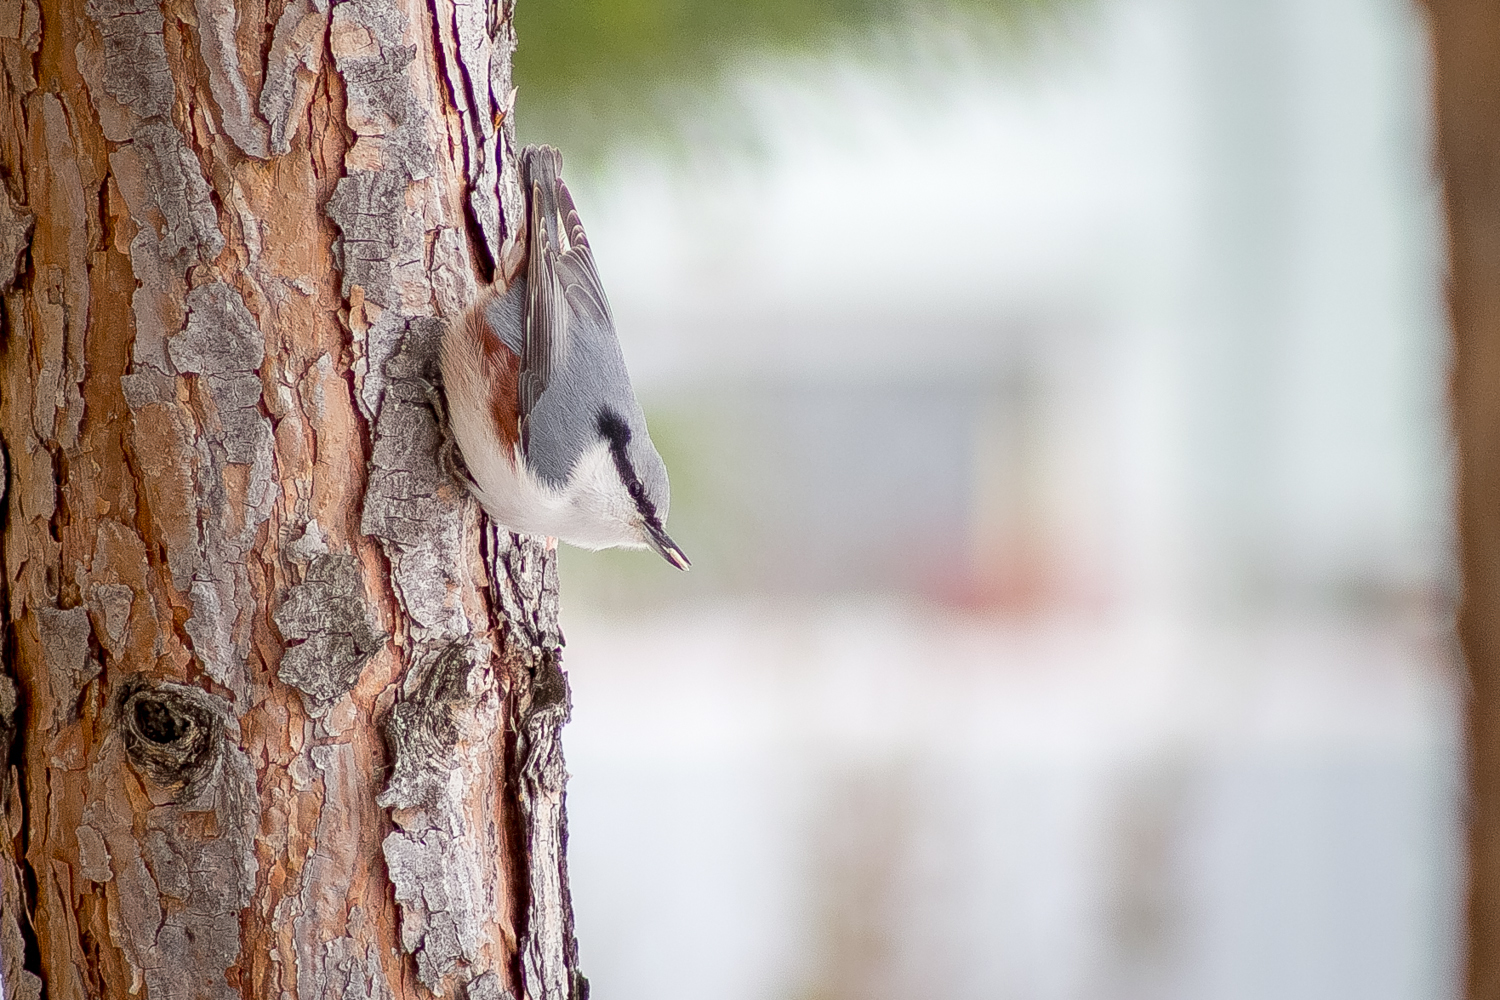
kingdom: Animalia
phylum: Chordata
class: Aves
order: Passeriformes
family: Sittidae
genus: Sitta
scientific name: Sitta europaea
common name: Eurasian nuthatch
